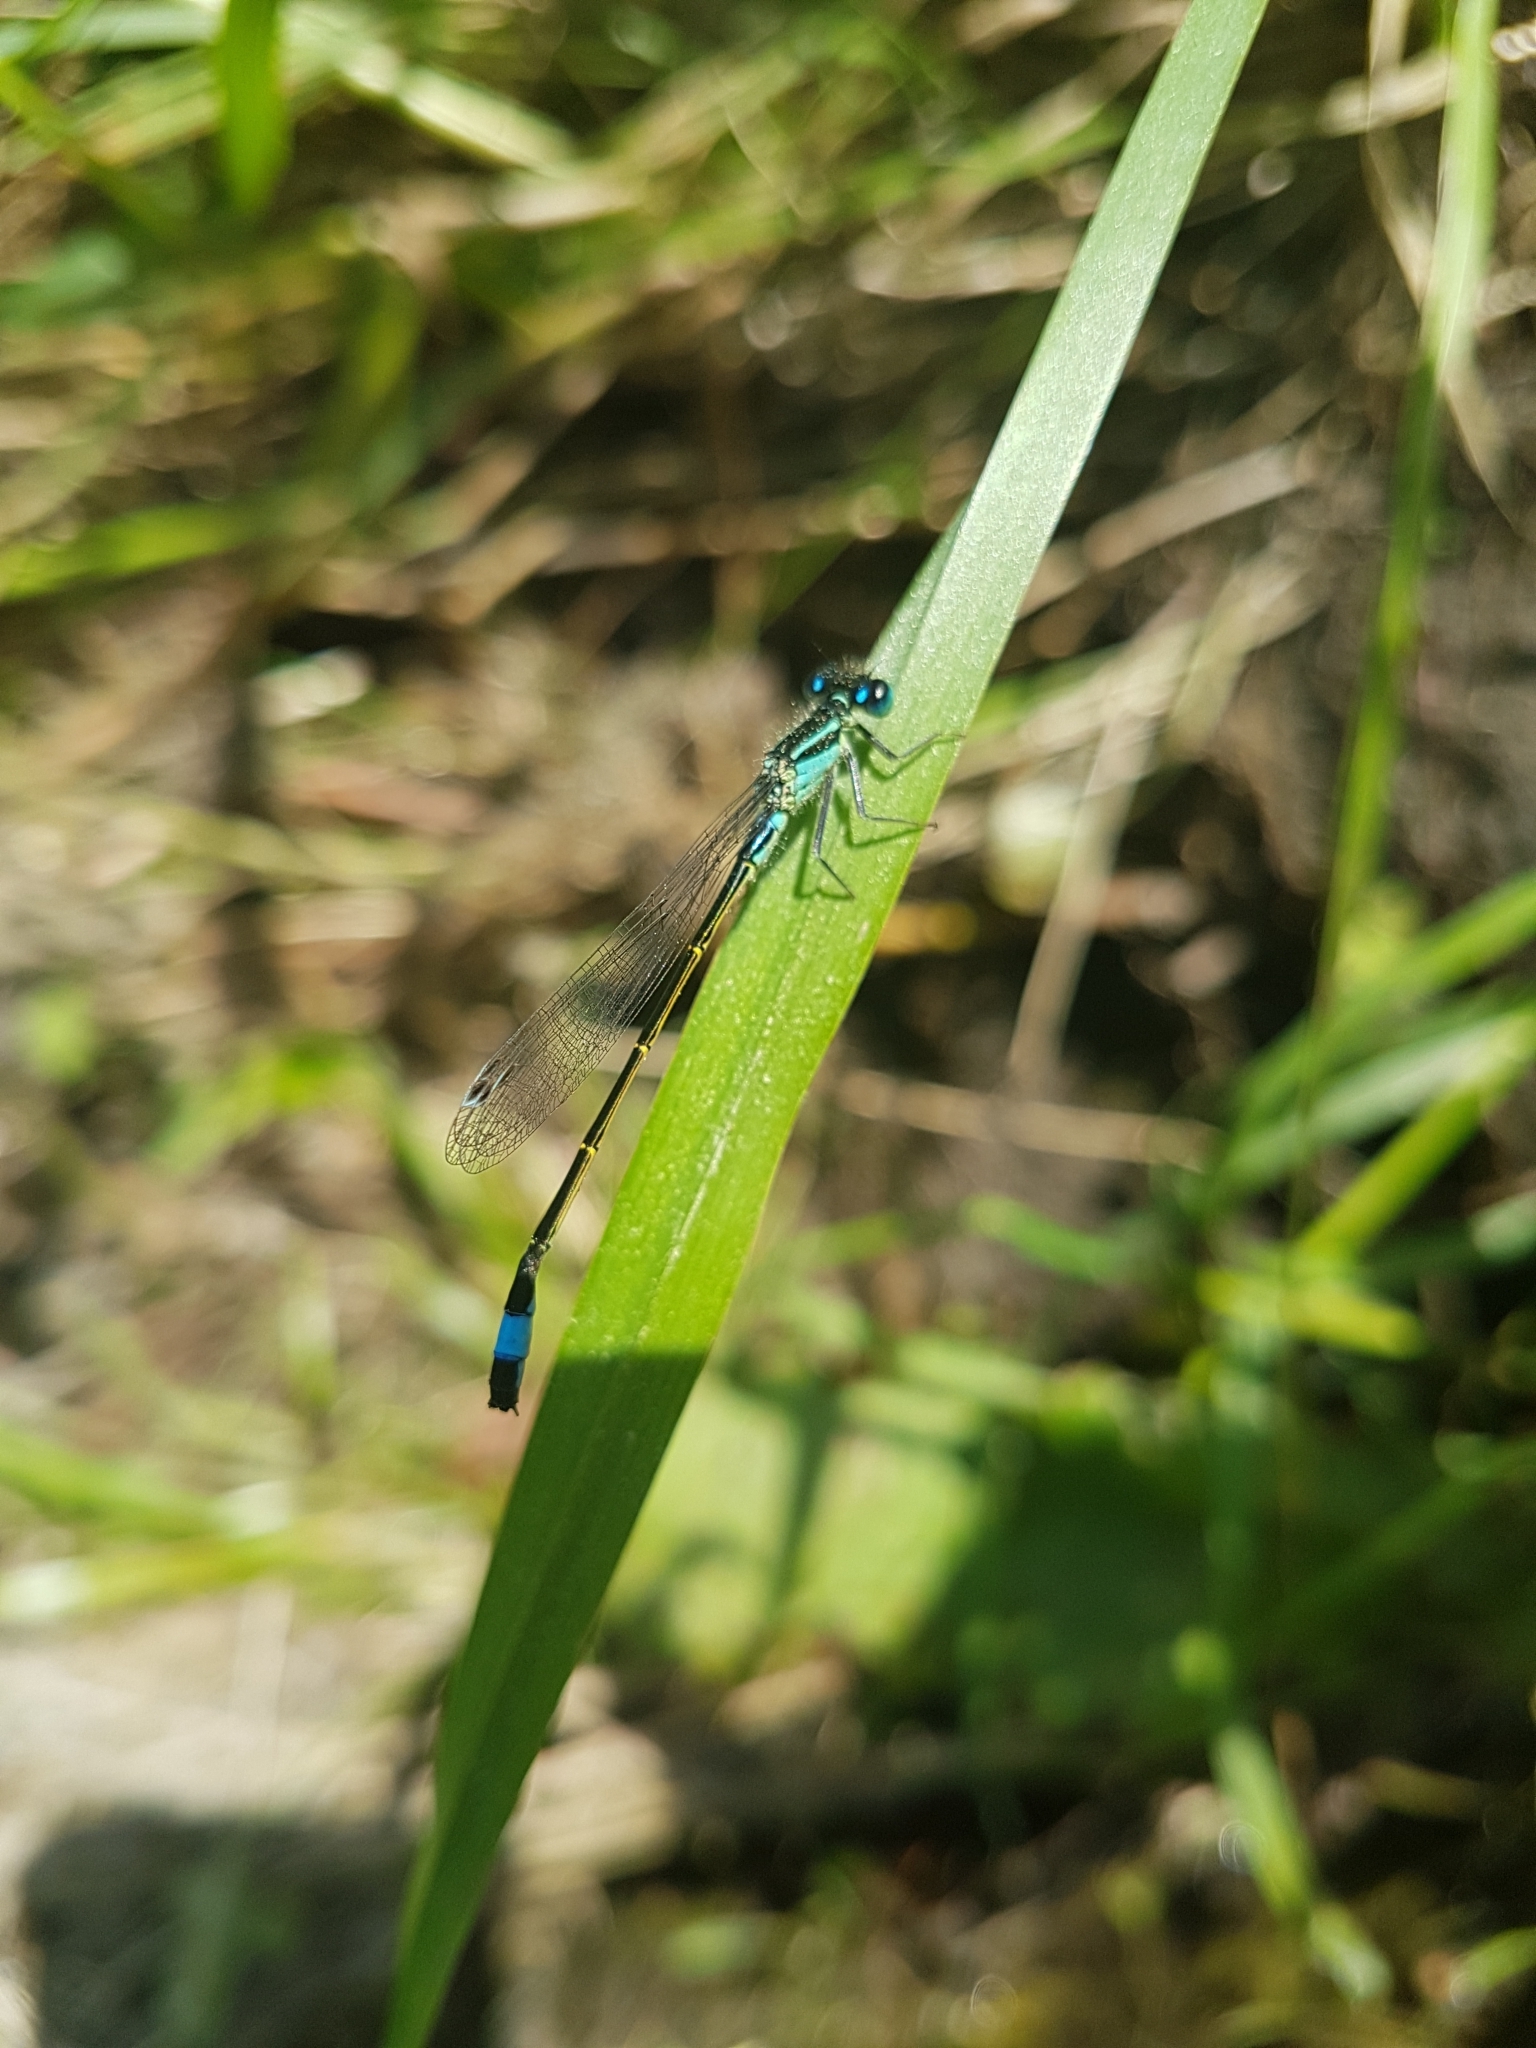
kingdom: Animalia
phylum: Arthropoda
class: Insecta
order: Odonata
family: Coenagrionidae
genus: Ischnura
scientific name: Ischnura elegans
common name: Blue-tailed damselfly
